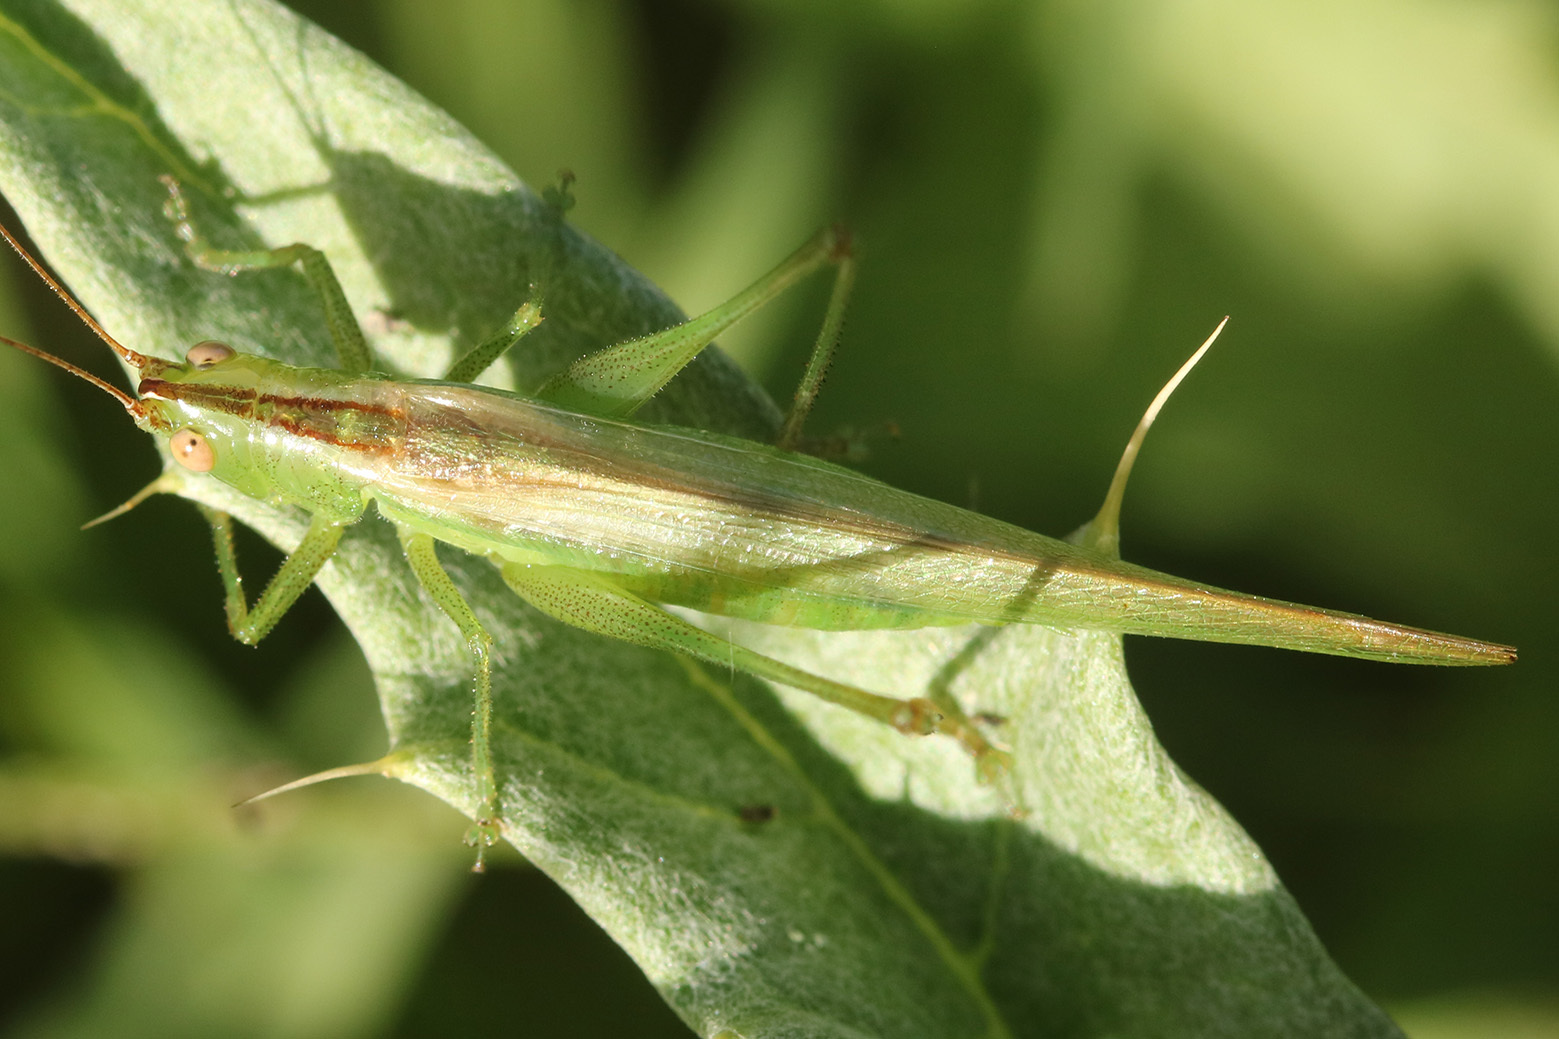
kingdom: Animalia
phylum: Arthropoda
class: Insecta
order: Orthoptera
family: Tettigoniidae
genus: Conocephalus
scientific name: Conocephalus longipes
